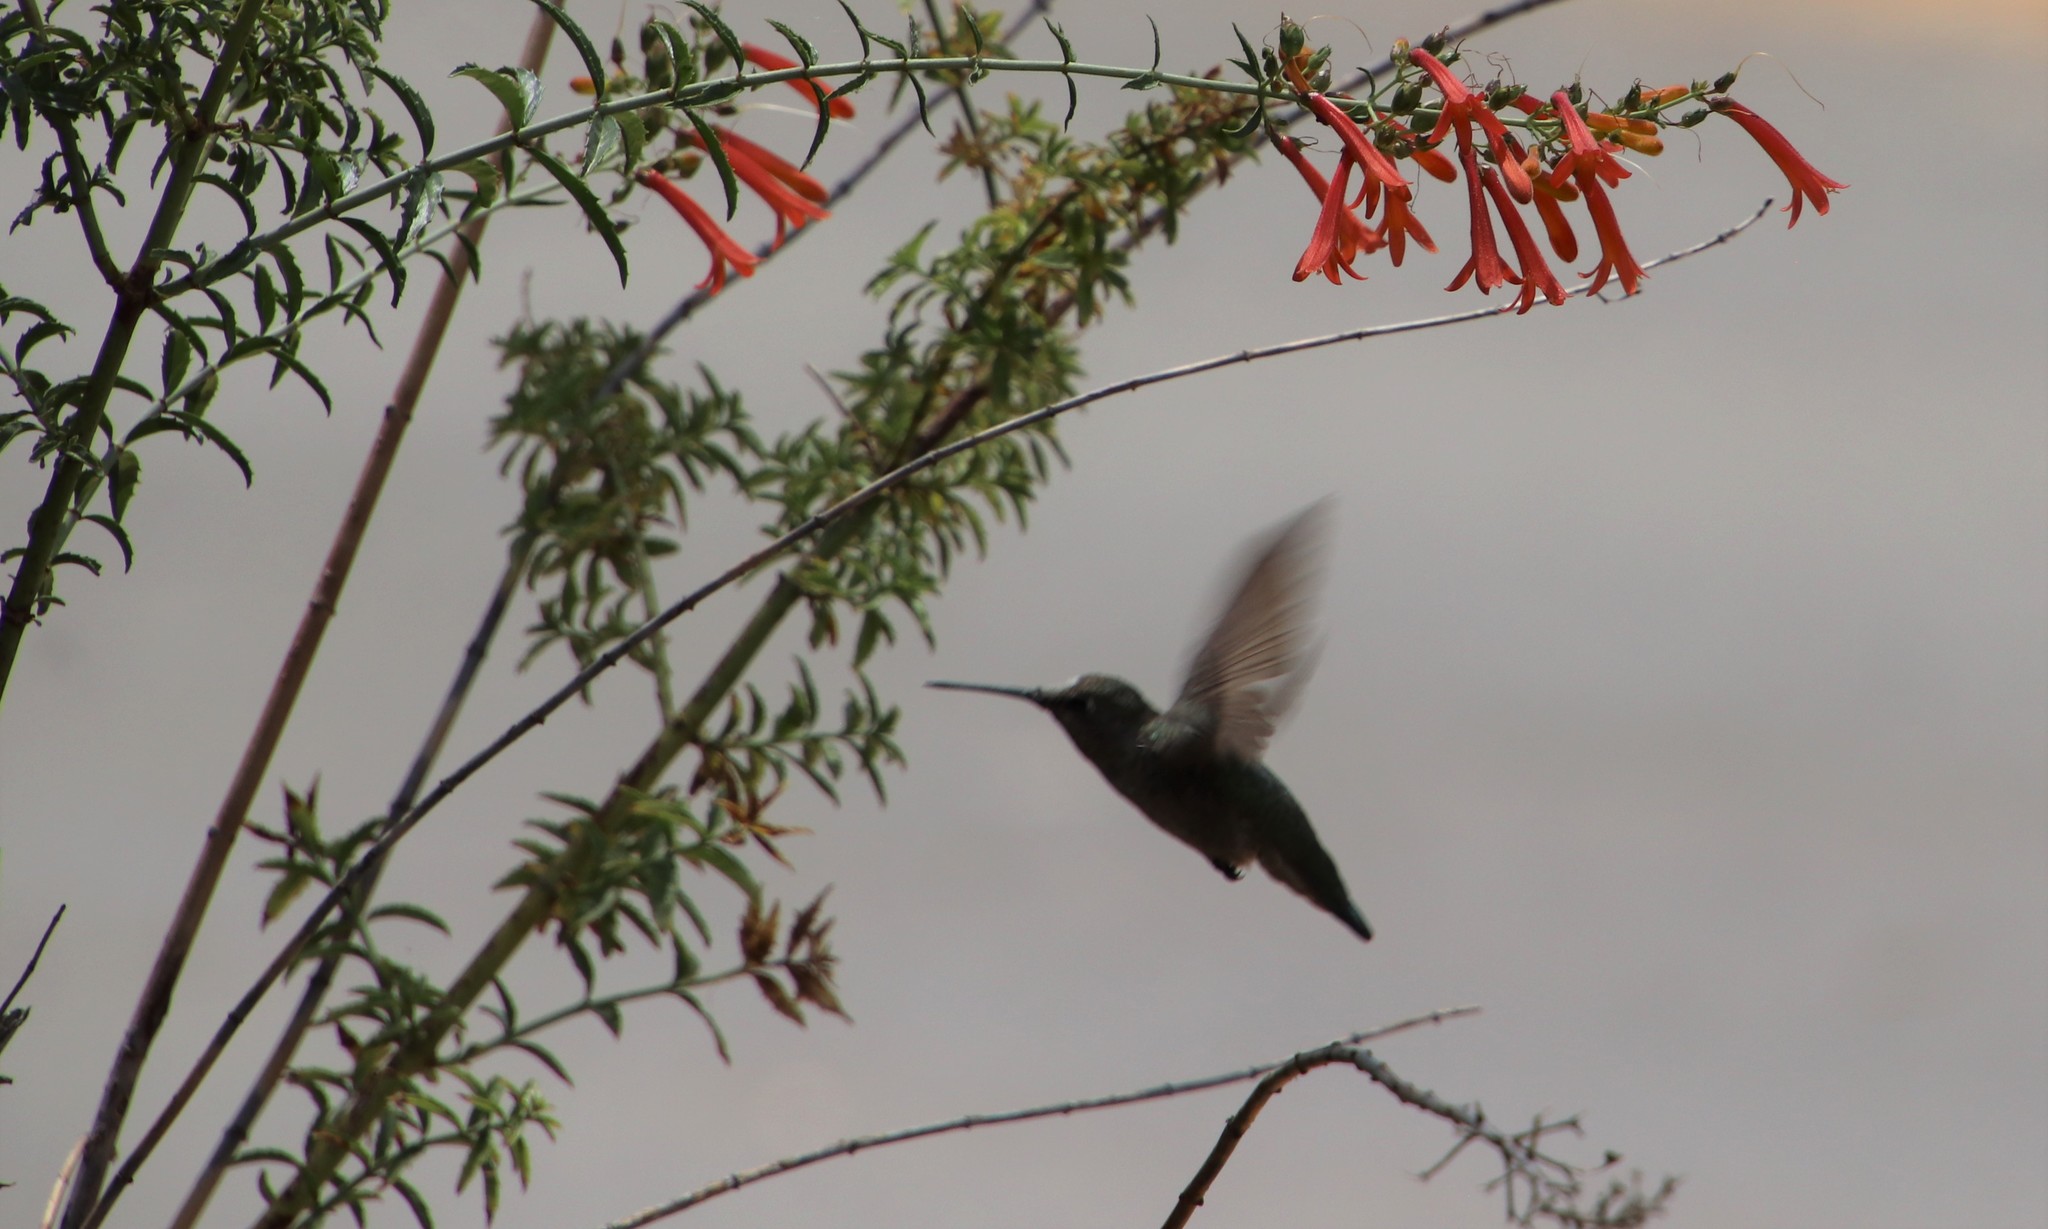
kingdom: Animalia
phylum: Chordata
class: Aves
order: Apodiformes
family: Trochilidae
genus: Calypte
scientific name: Calypte anna
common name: Anna's hummingbird
